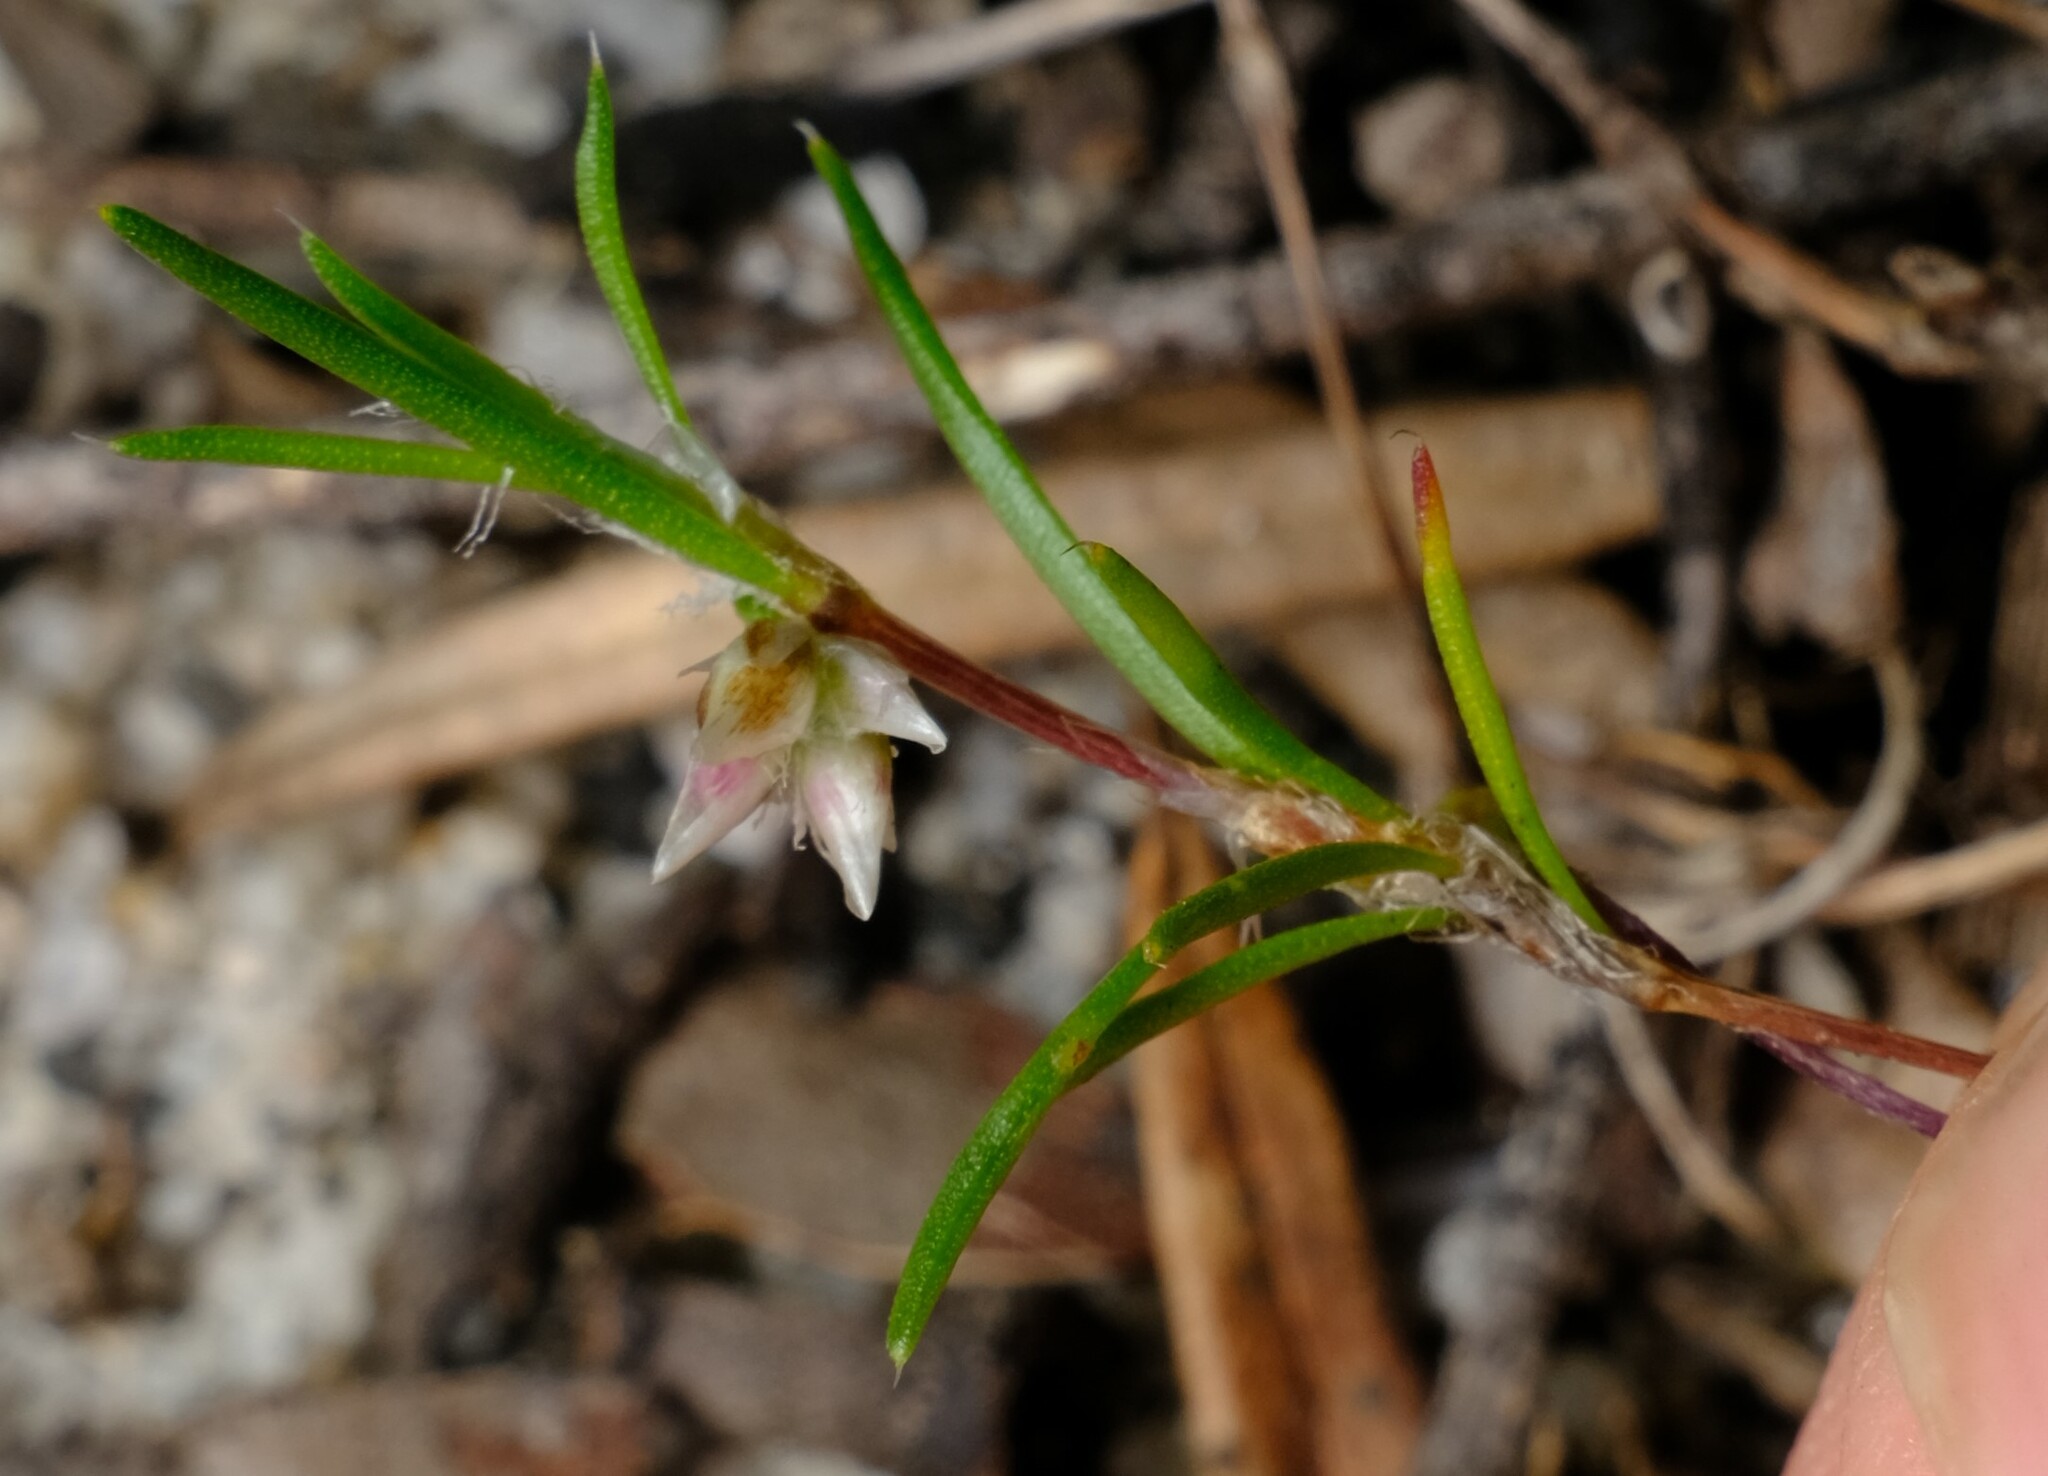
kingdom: Plantae
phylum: Tracheophyta
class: Liliopsida
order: Asparagales
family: Asparagaceae
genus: Laxmannia
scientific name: Laxmannia orientalis
